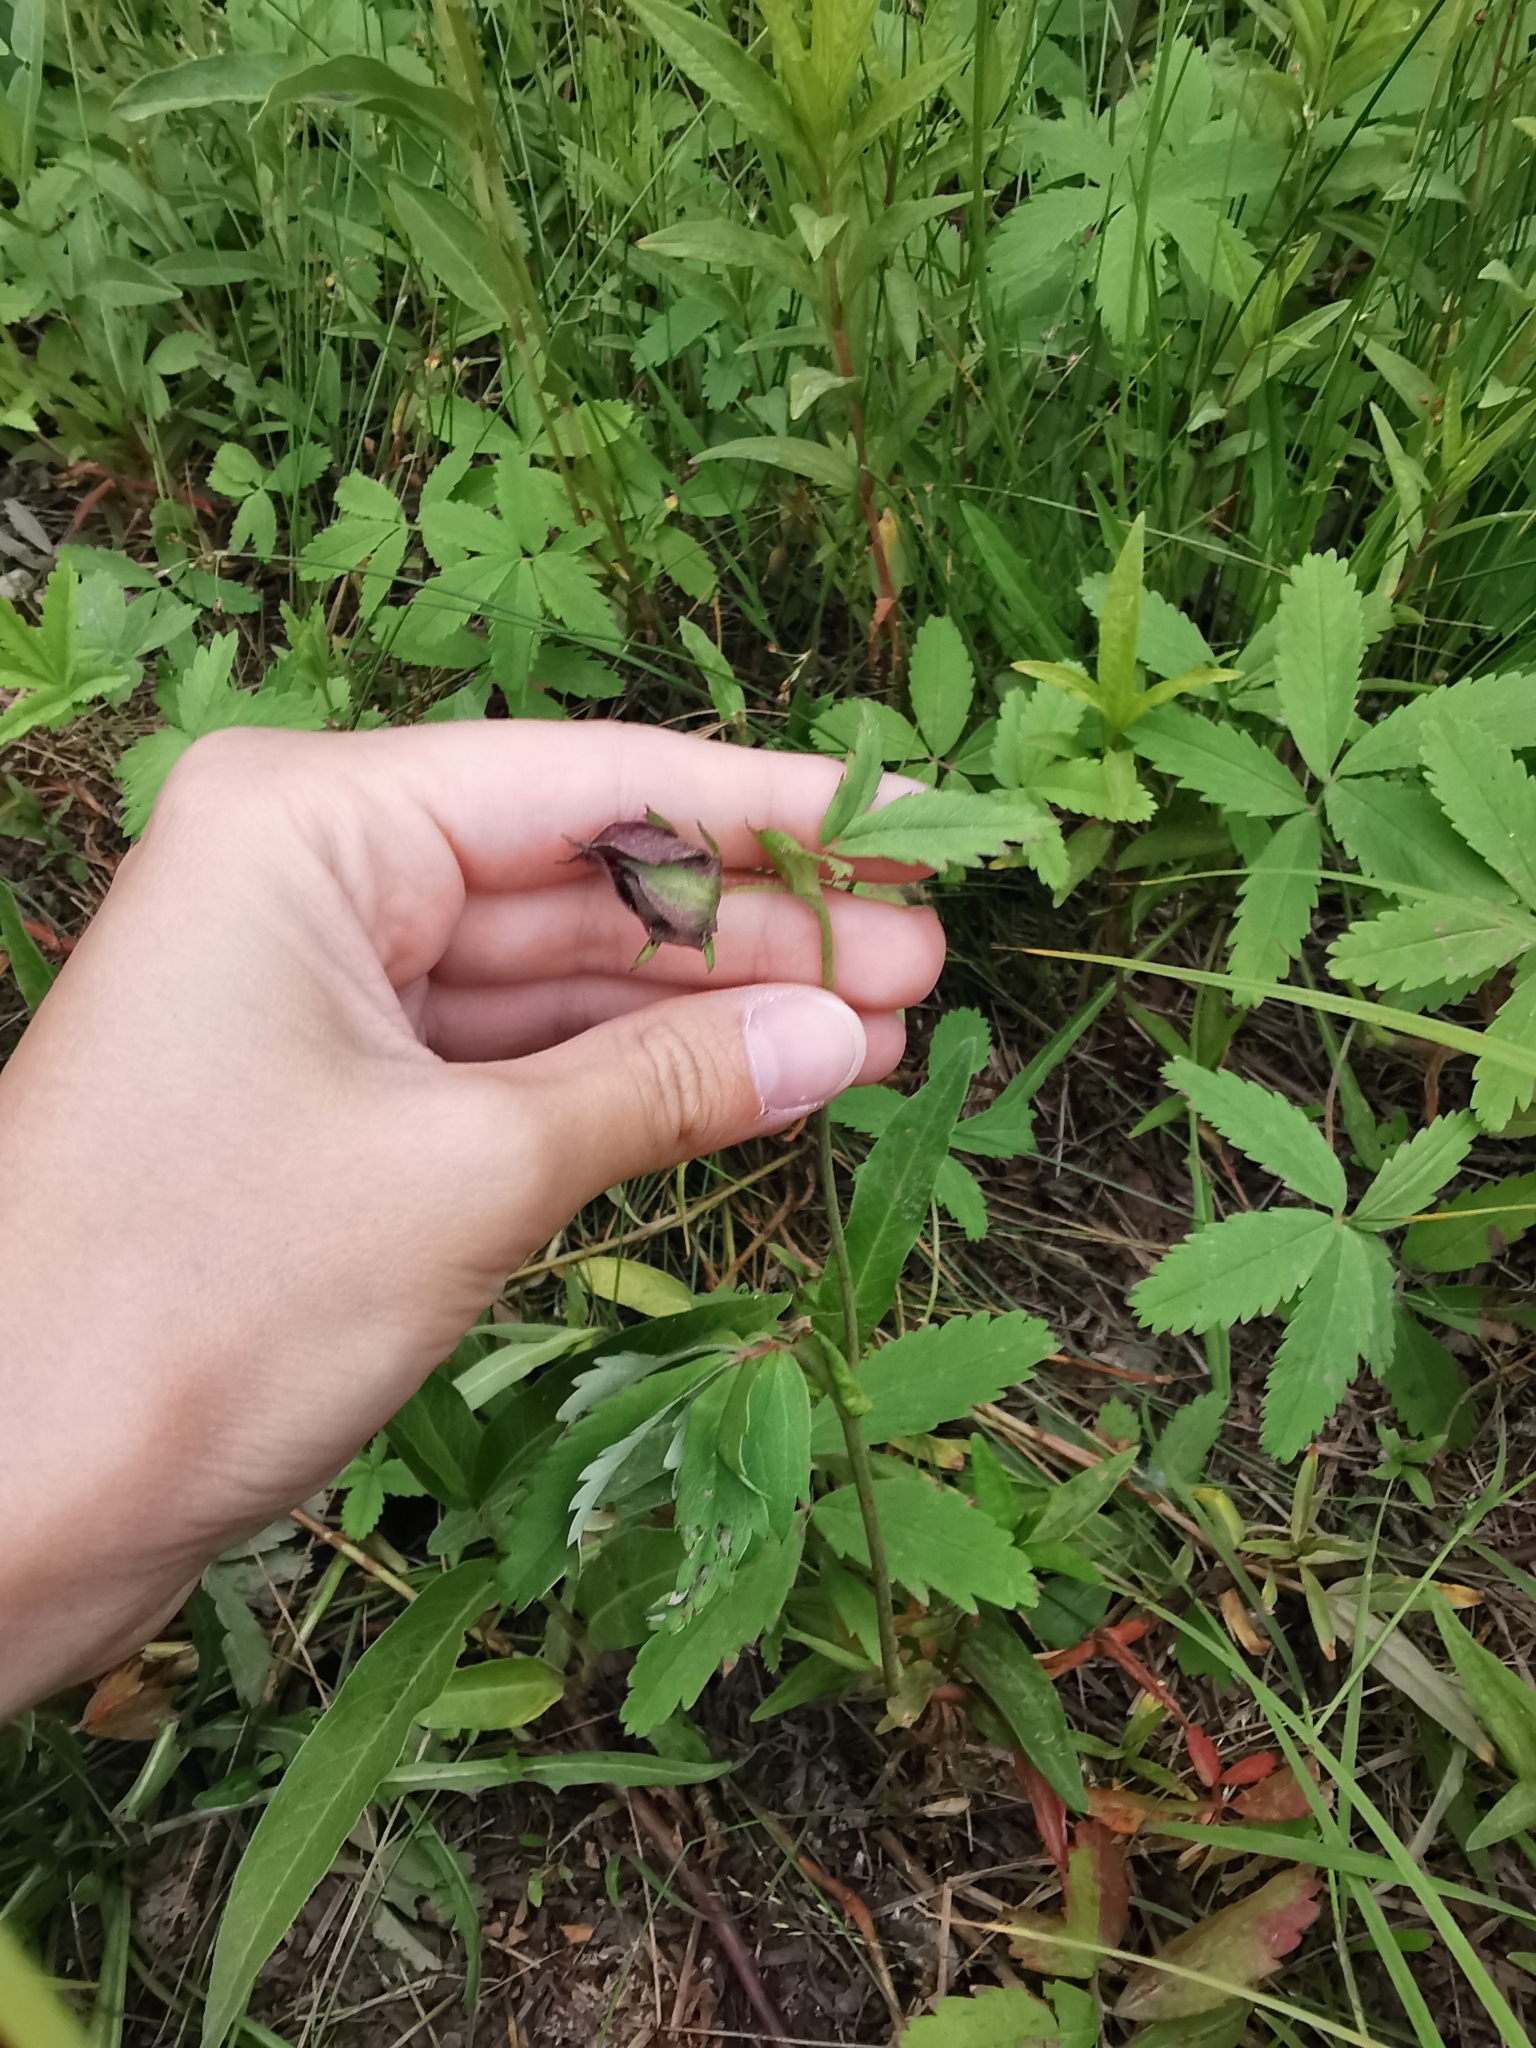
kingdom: Plantae
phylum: Tracheophyta
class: Magnoliopsida
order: Rosales
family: Rosaceae
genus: Comarum
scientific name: Comarum palustre
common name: Marsh cinquefoil
